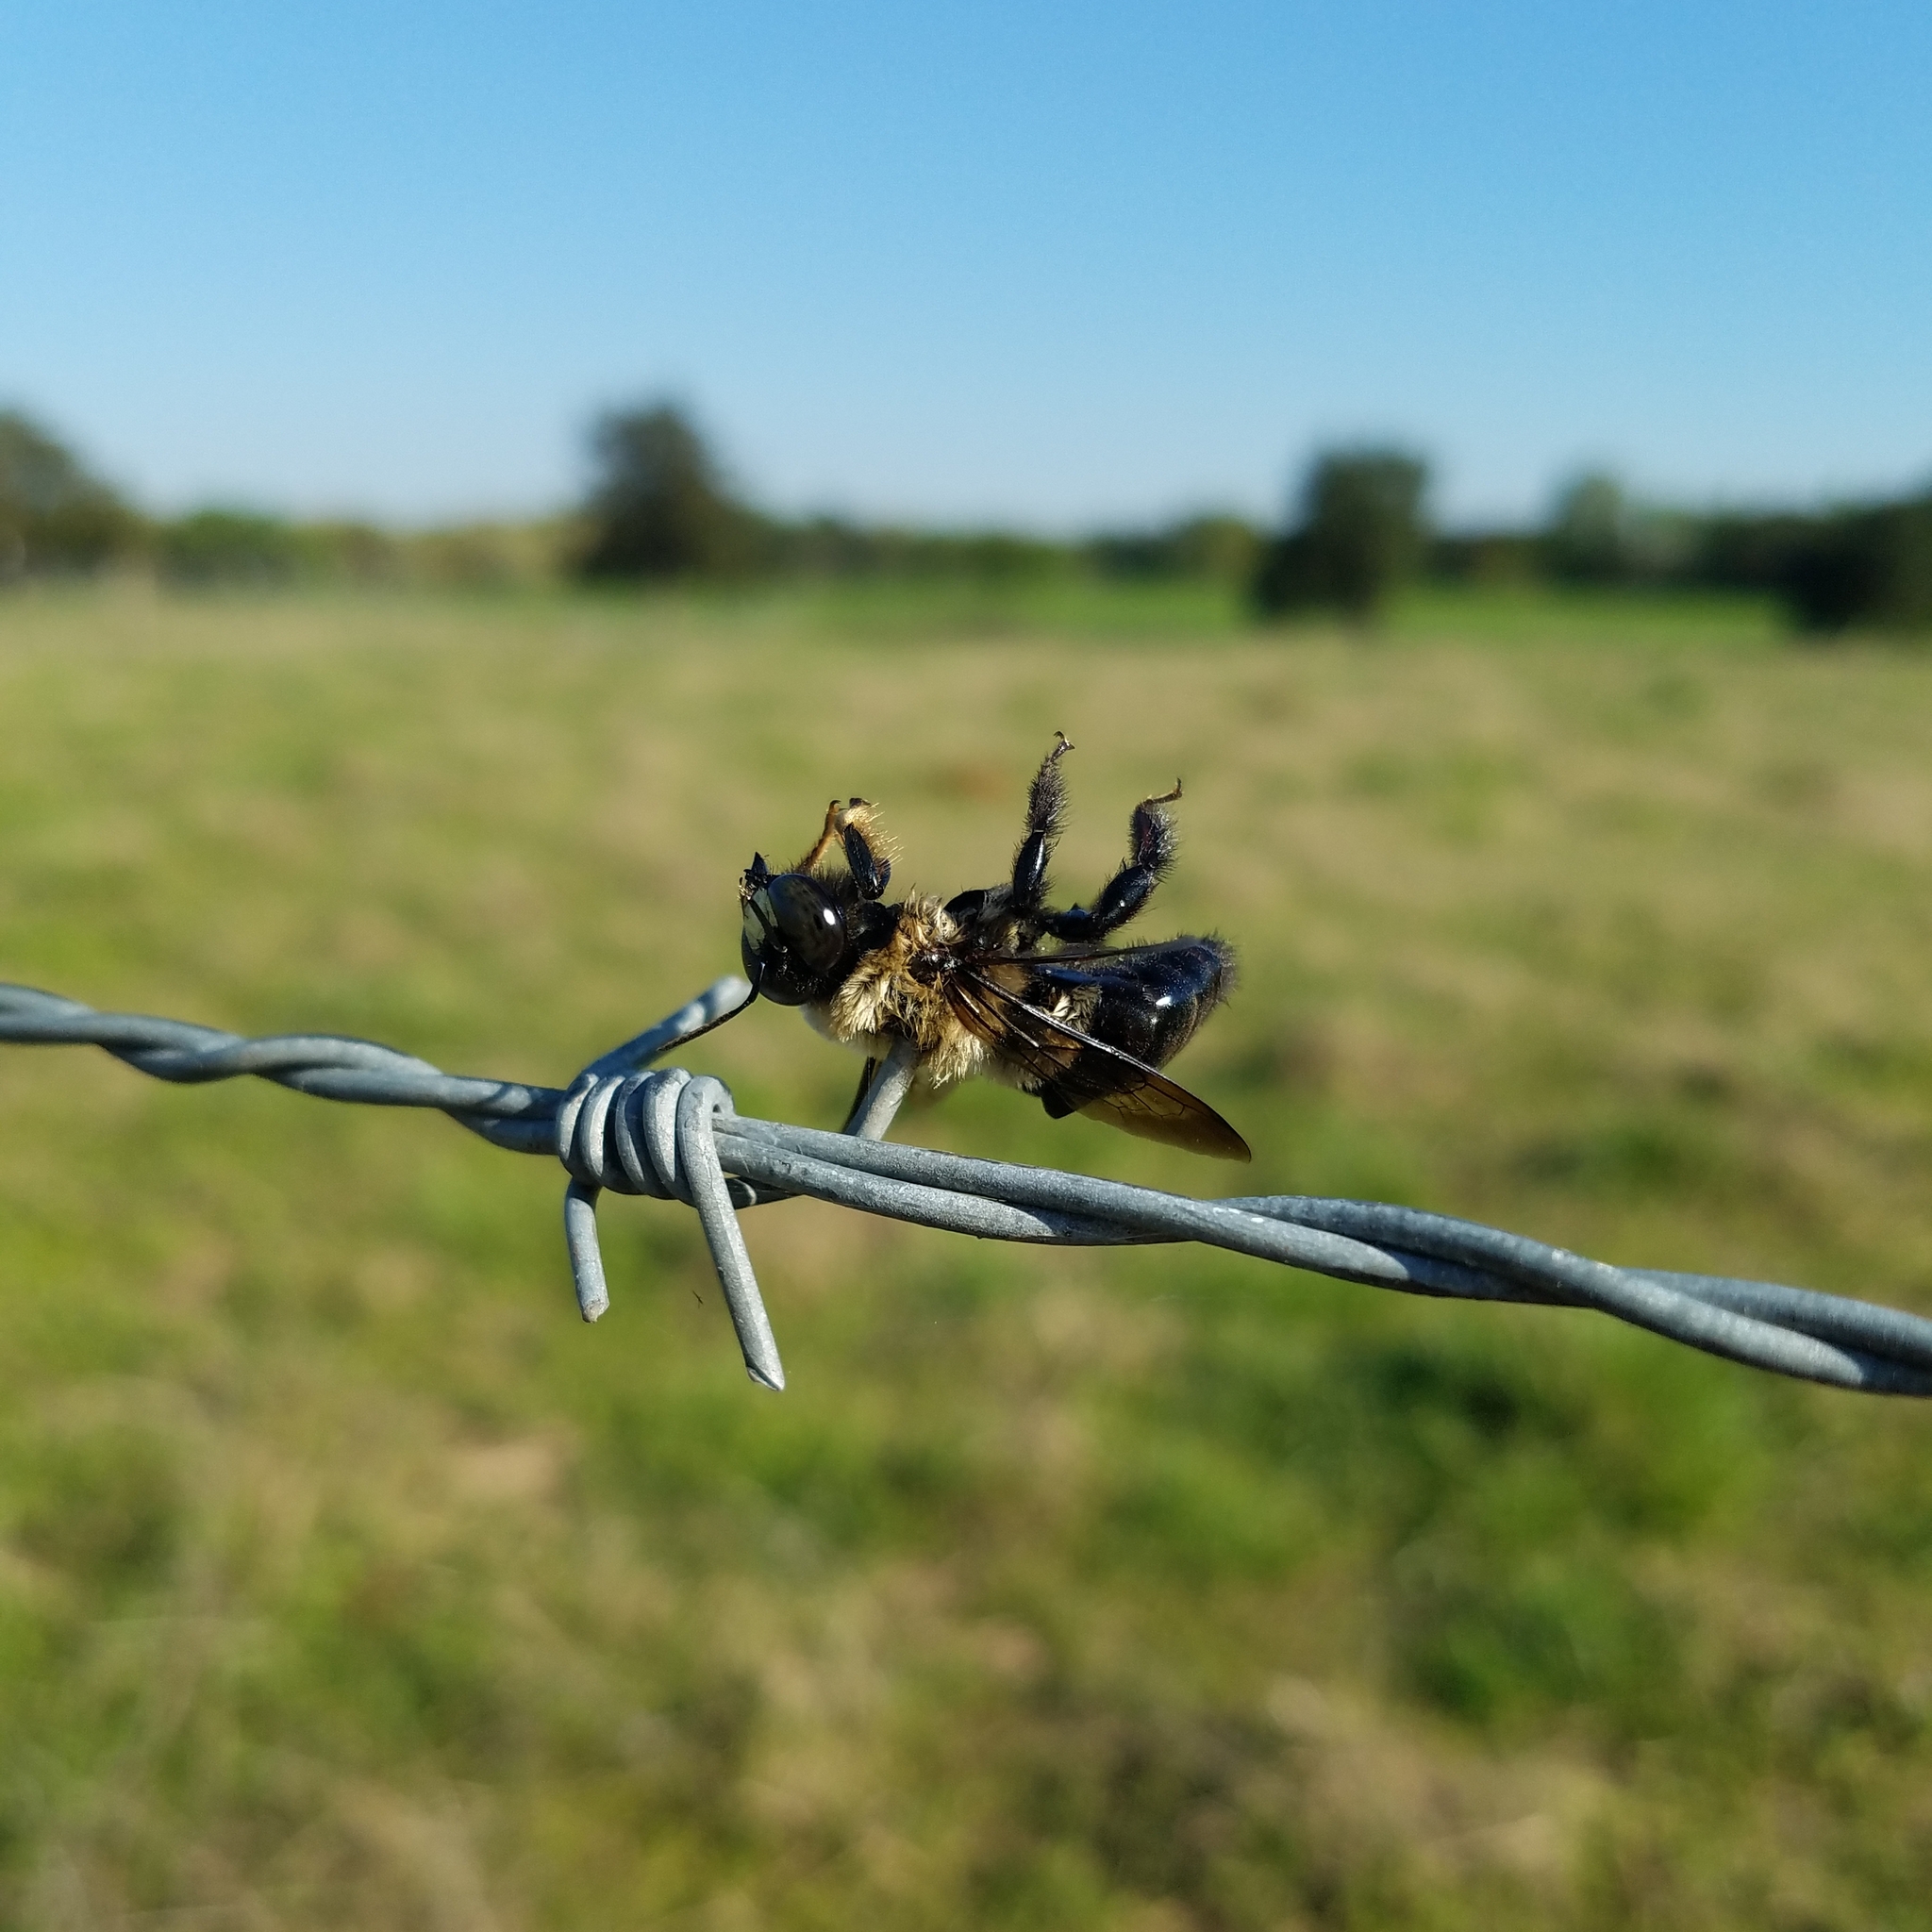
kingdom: Animalia
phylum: Arthropoda
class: Insecta
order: Hymenoptera
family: Apidae
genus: Xylocopa
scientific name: Xylocopa virginica
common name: Carpenter bee
